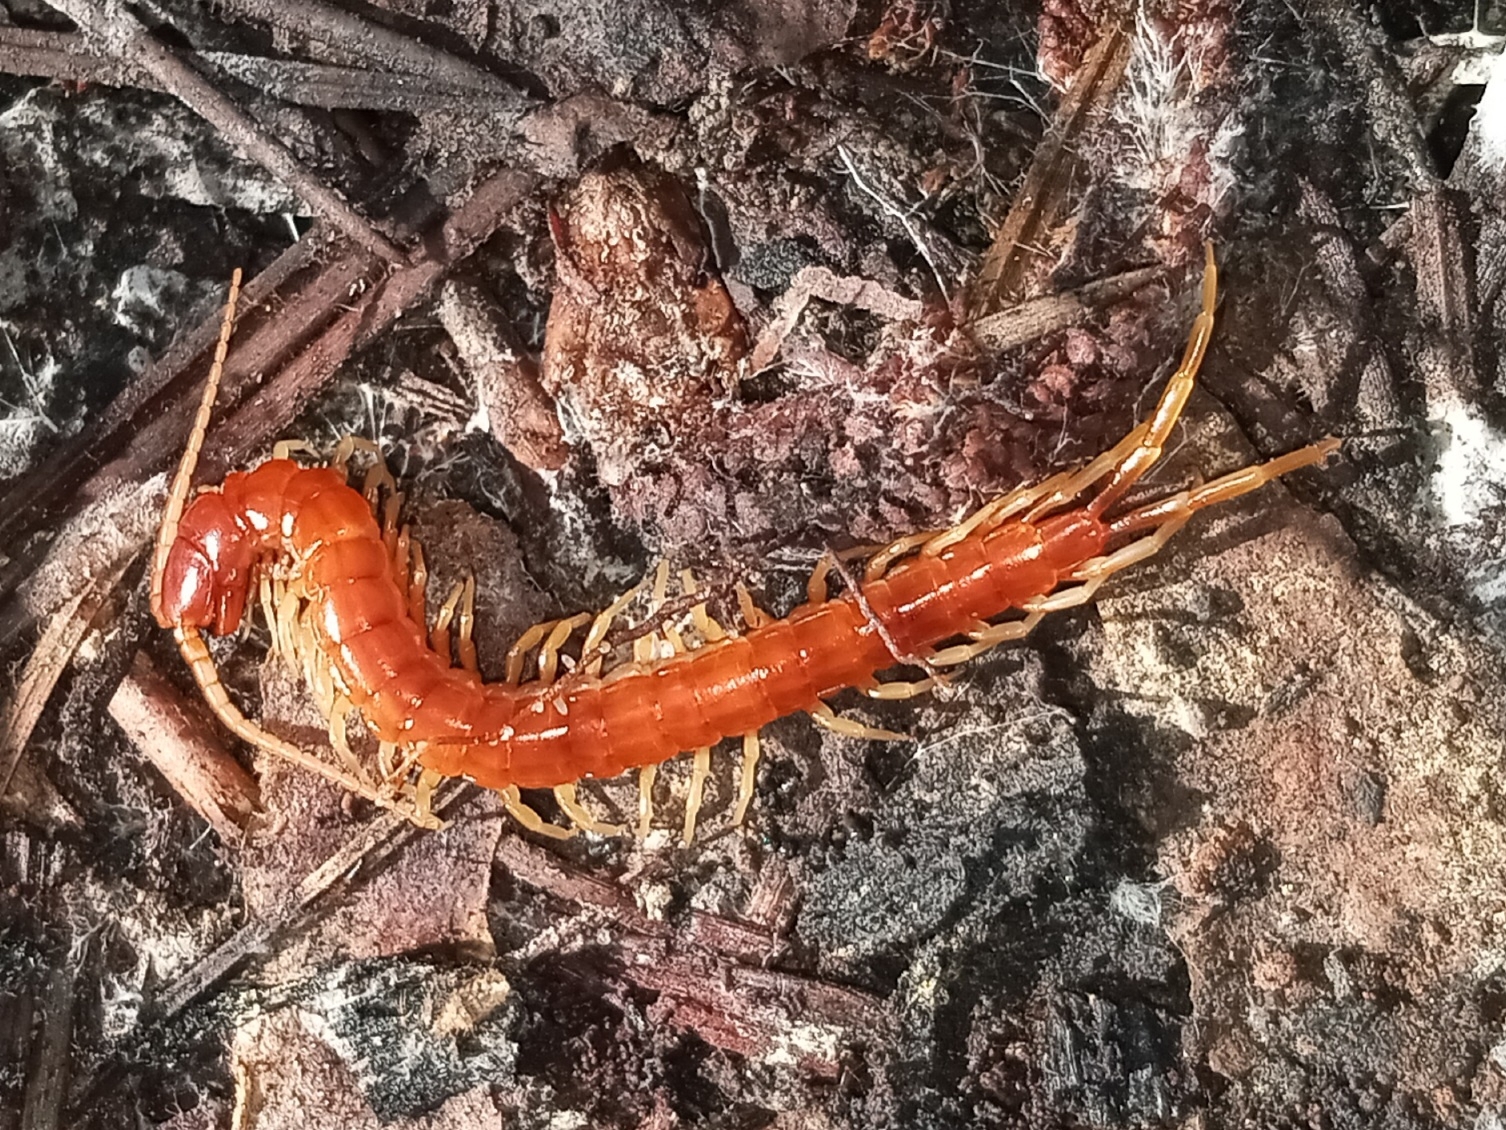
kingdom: Animalia
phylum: Arthropoda
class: Chilopoda
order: Scolopendromorpha
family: Scolopocryptopidae
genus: Scolopocryptops
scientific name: Scolopocryptops sexspinosus
